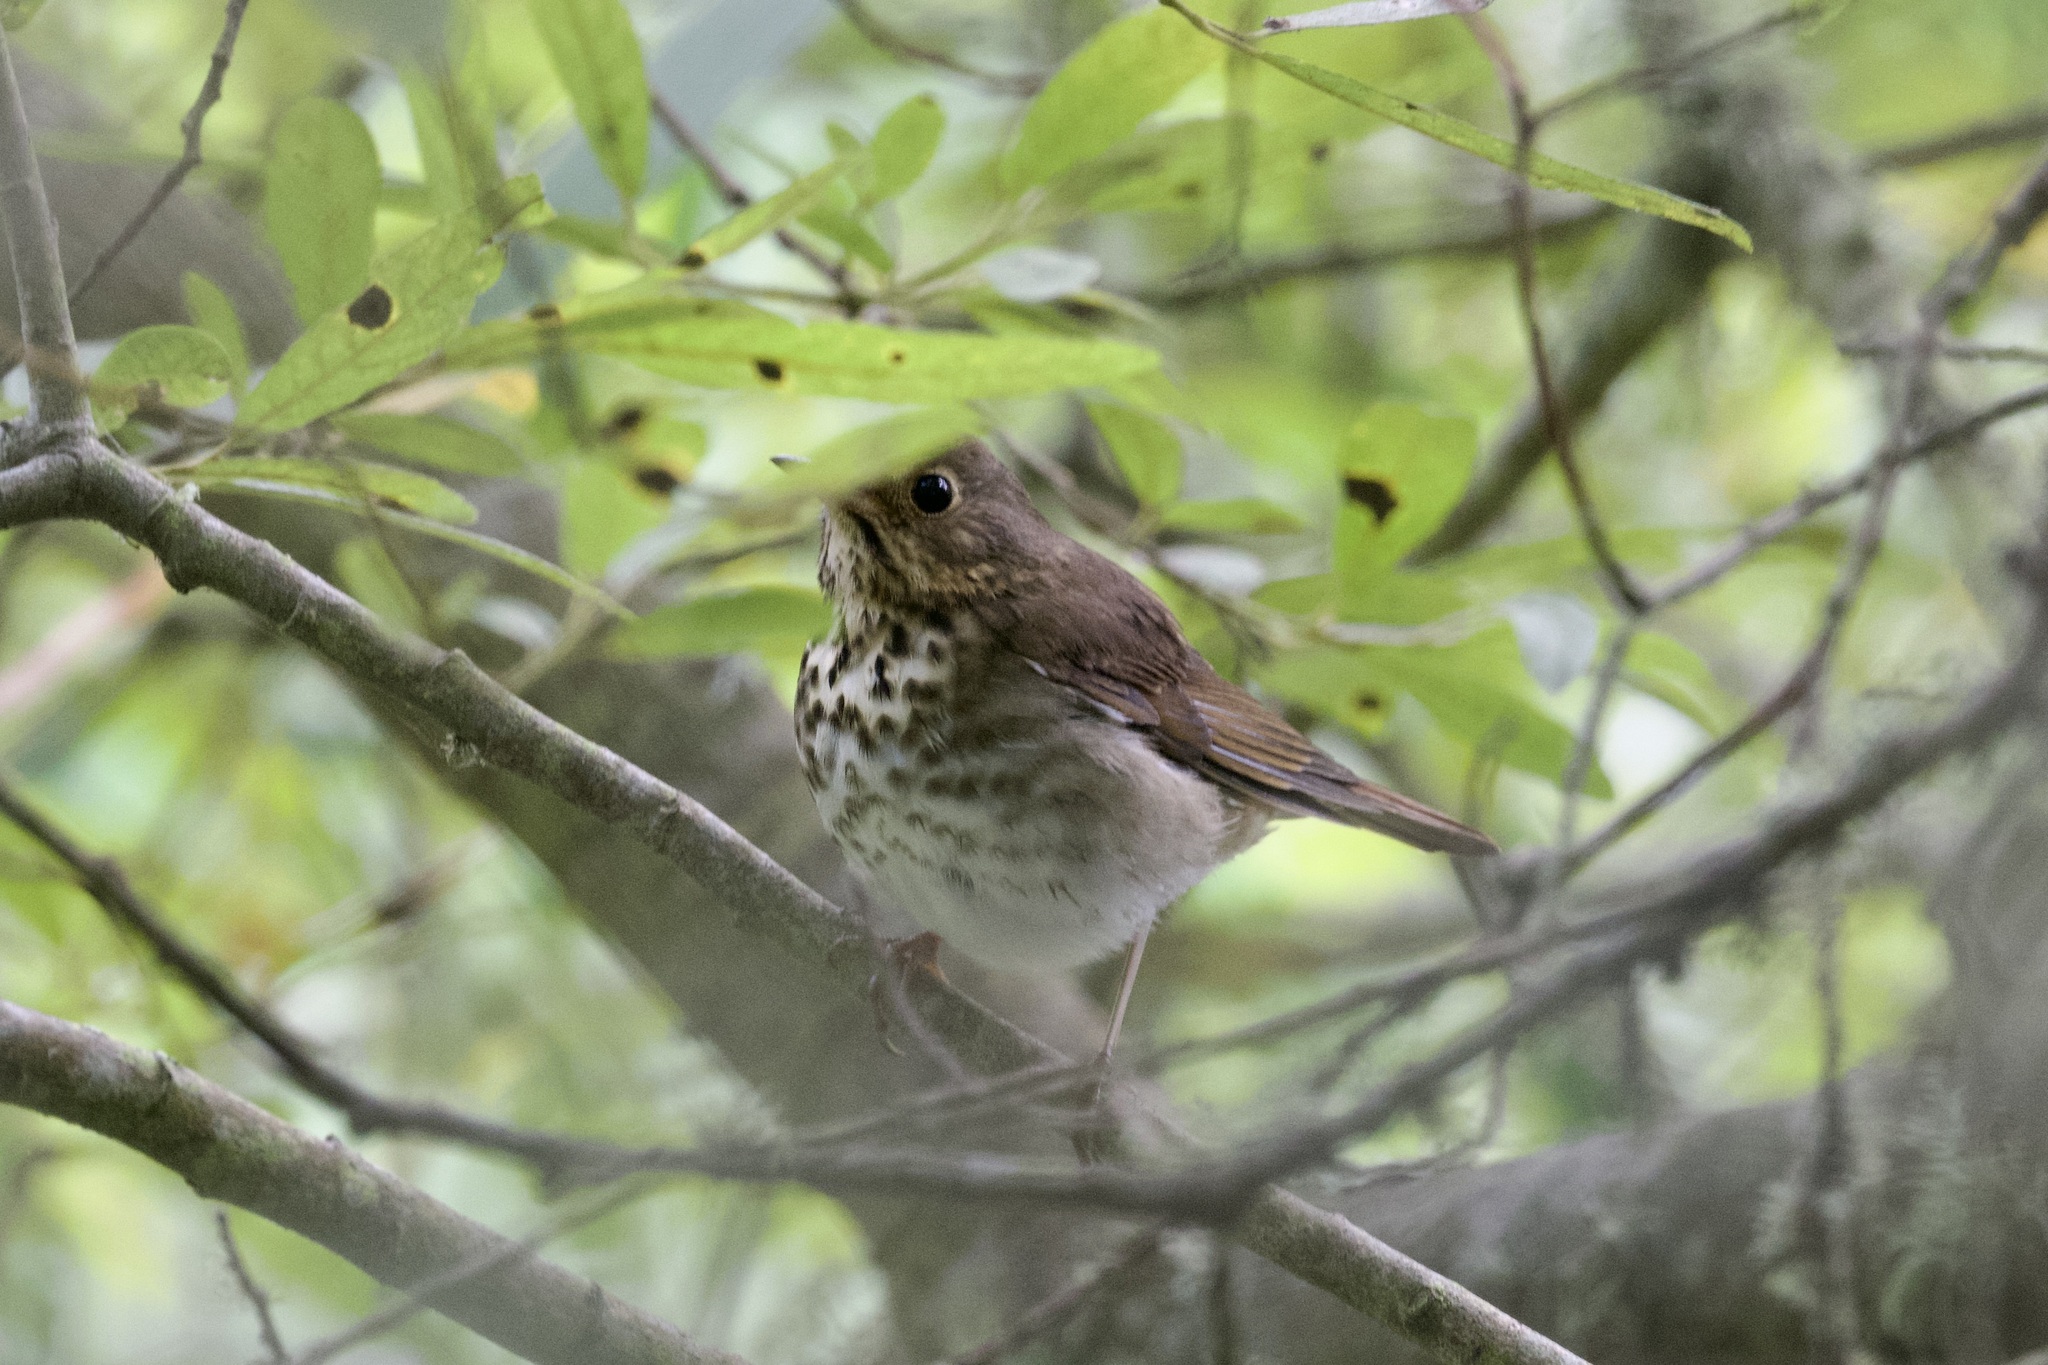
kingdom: Animalia
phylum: Chordata
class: Aves
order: Passeriformes
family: Turdidae
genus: Catharus
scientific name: Catharus guttatus
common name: Hermit thrush
